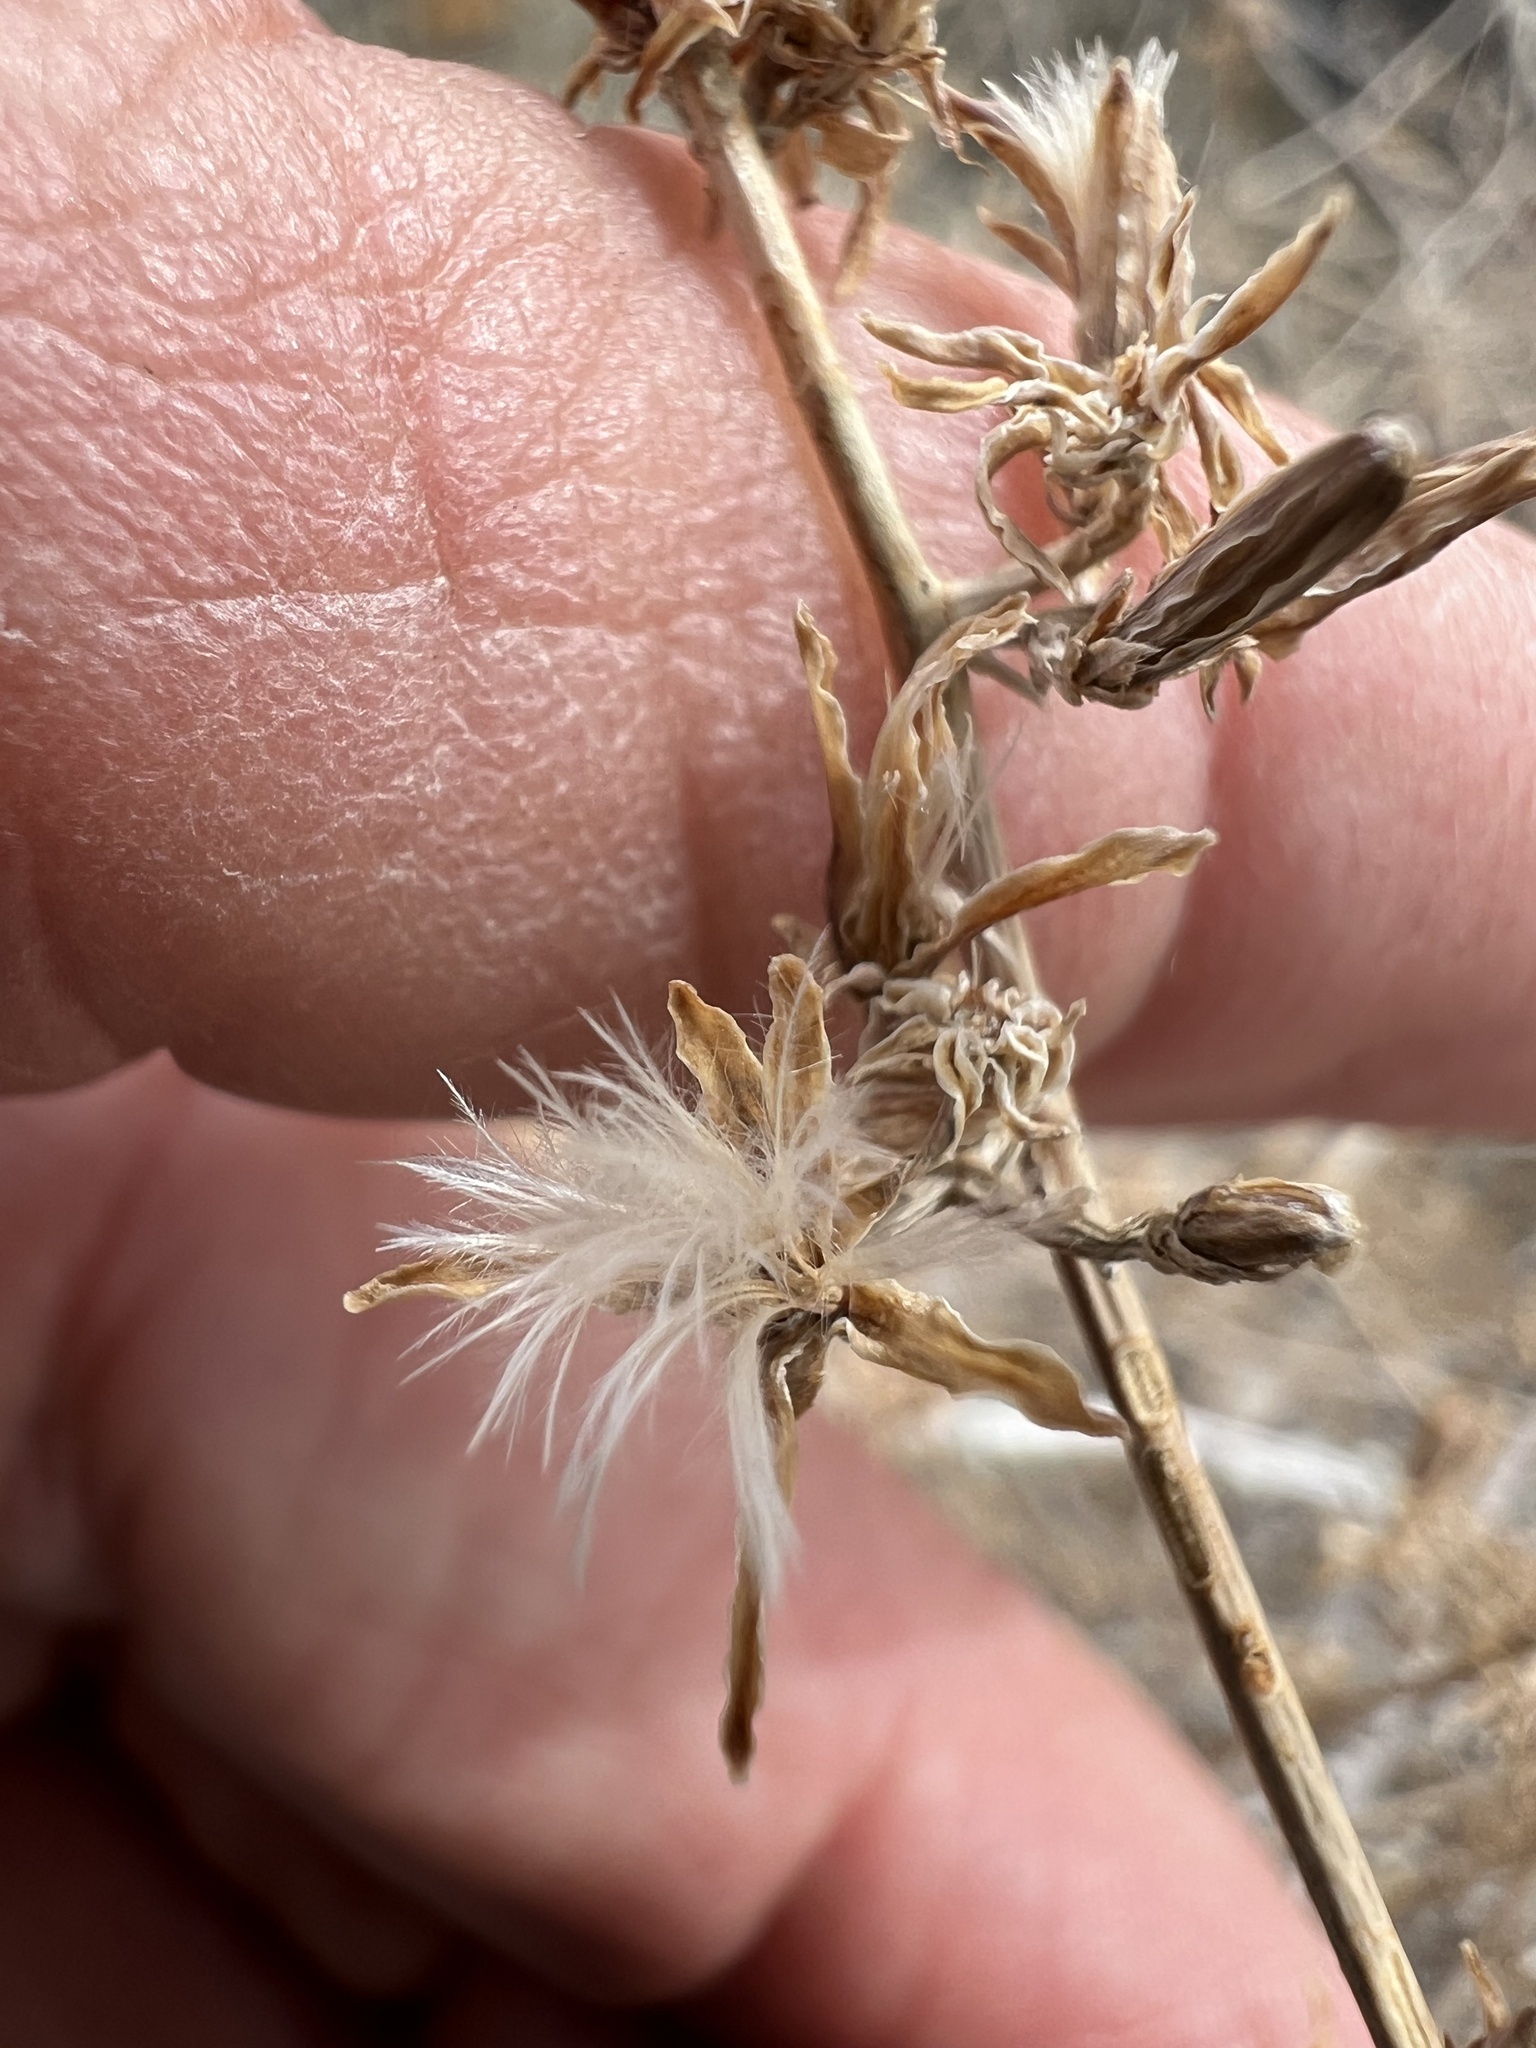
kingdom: Plantae
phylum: Tracheophyta
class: Magnoliopsida
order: Asterales
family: Asteraceae
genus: Stephanomeria
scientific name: Stephanomeria pauciflora
